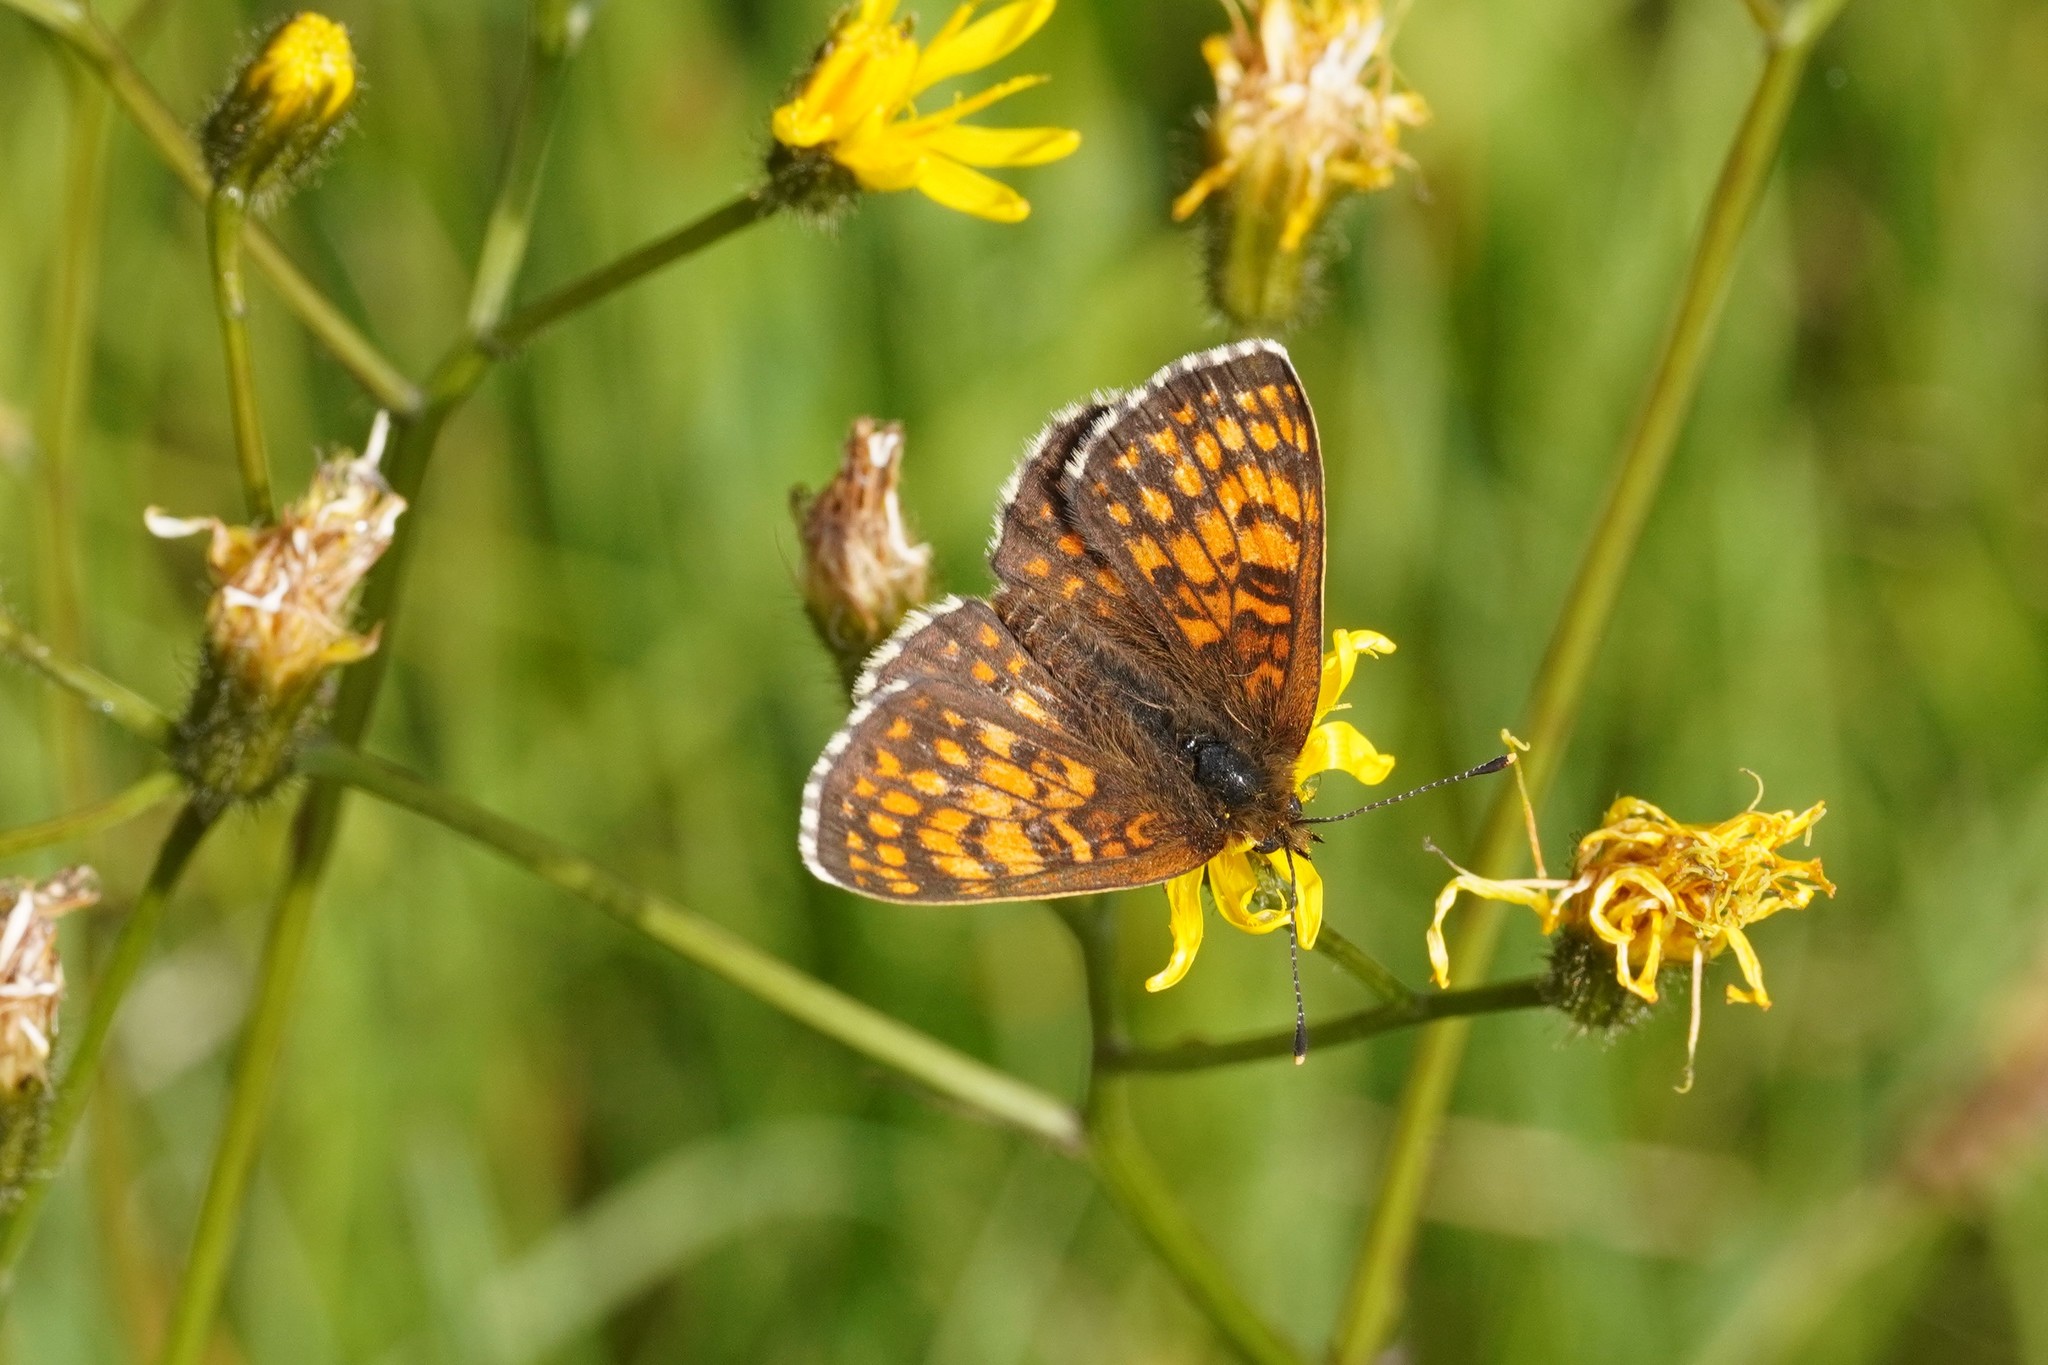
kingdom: Animalia
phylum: Arthropoda
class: Insecta
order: Lepidoptera
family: Nymphalidae
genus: Melitaea
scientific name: Melitaea athalia
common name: Heath fritillary
